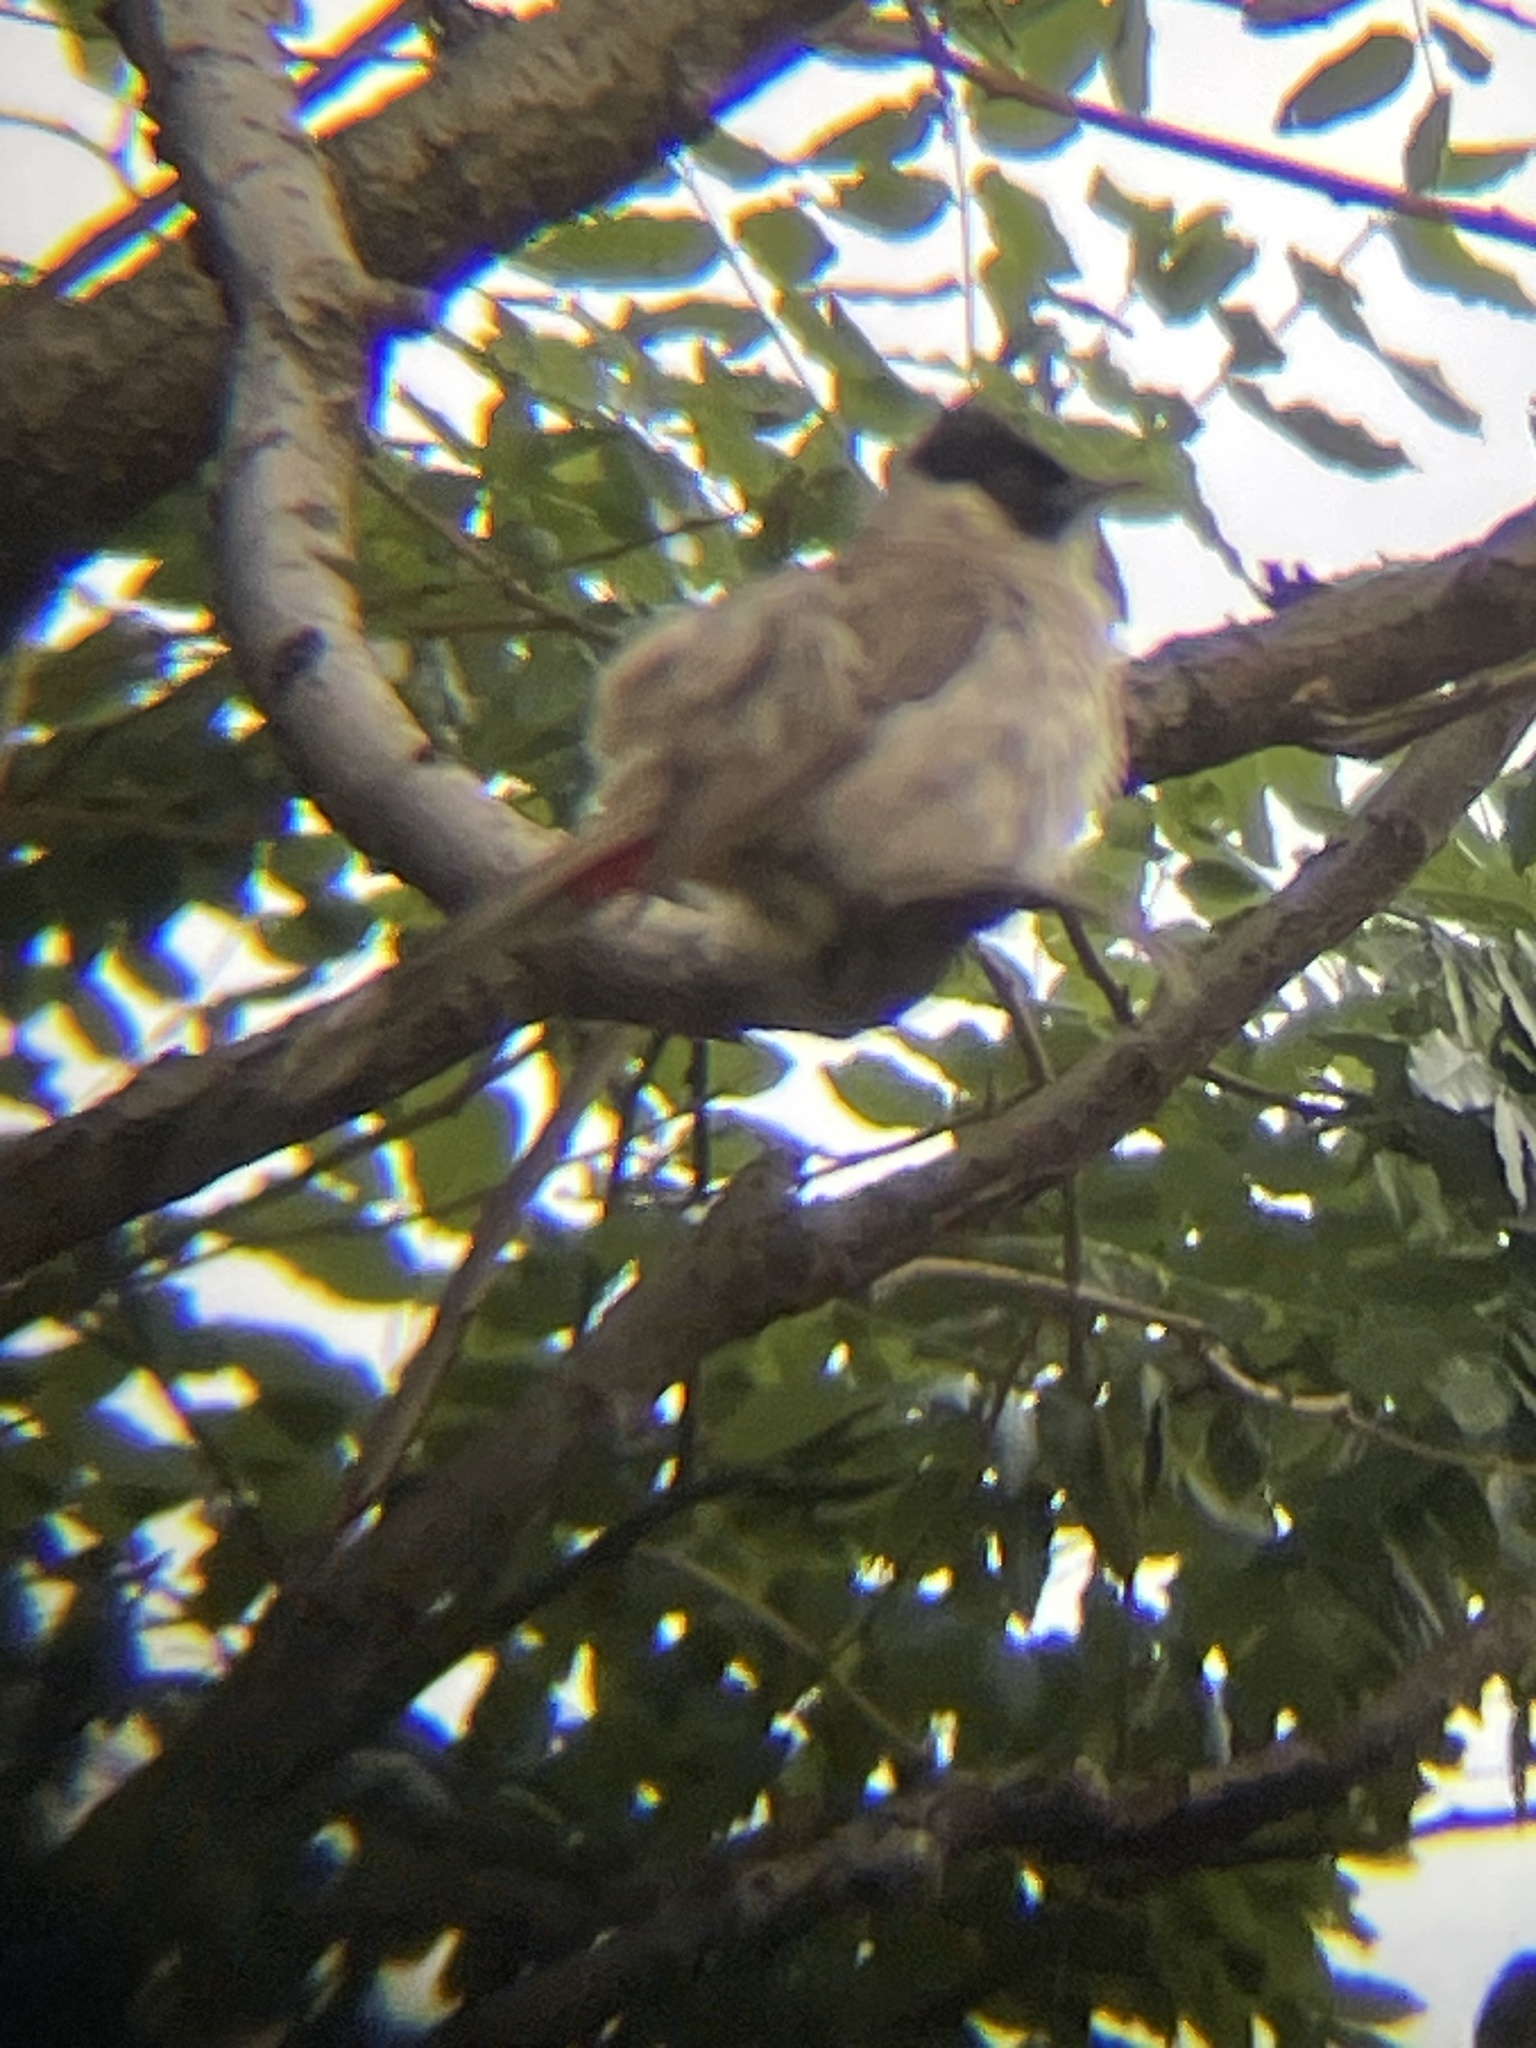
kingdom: Animalia
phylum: Chordata
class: Aves
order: Passeriformes
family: Pycnonotidae
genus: Pycnonotus
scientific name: Pycnonotus aurigaster
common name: Sooty-headed bulbul
